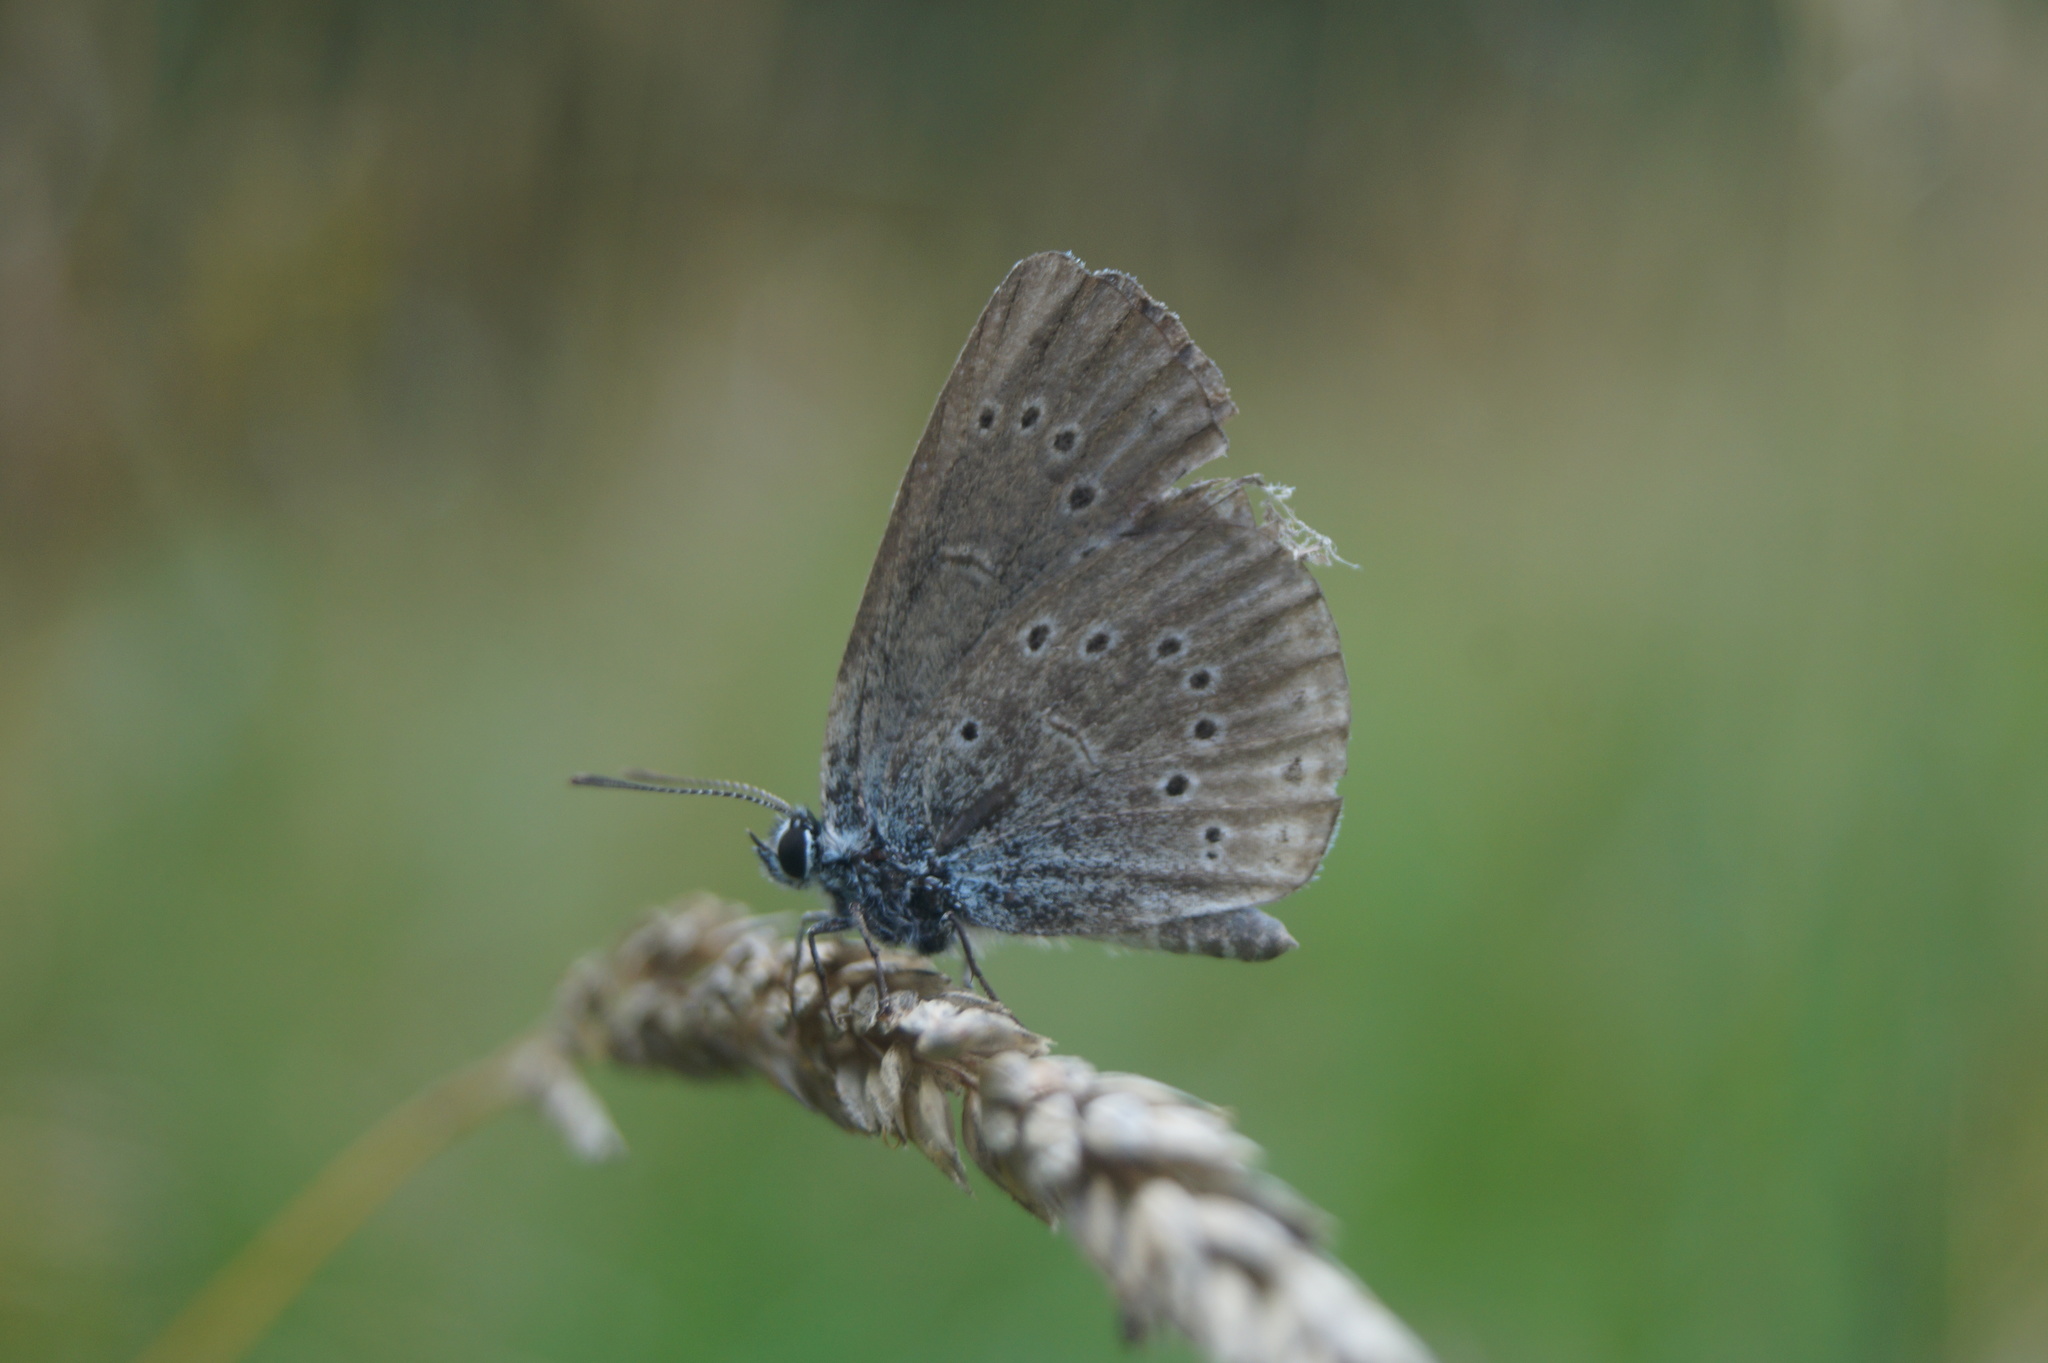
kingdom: Animalia
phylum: Arthropoda
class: Insecta
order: Lepidoptera
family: Lycaenidae
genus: Phengaris
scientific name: Phengaris teleius
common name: Scarce large blue
